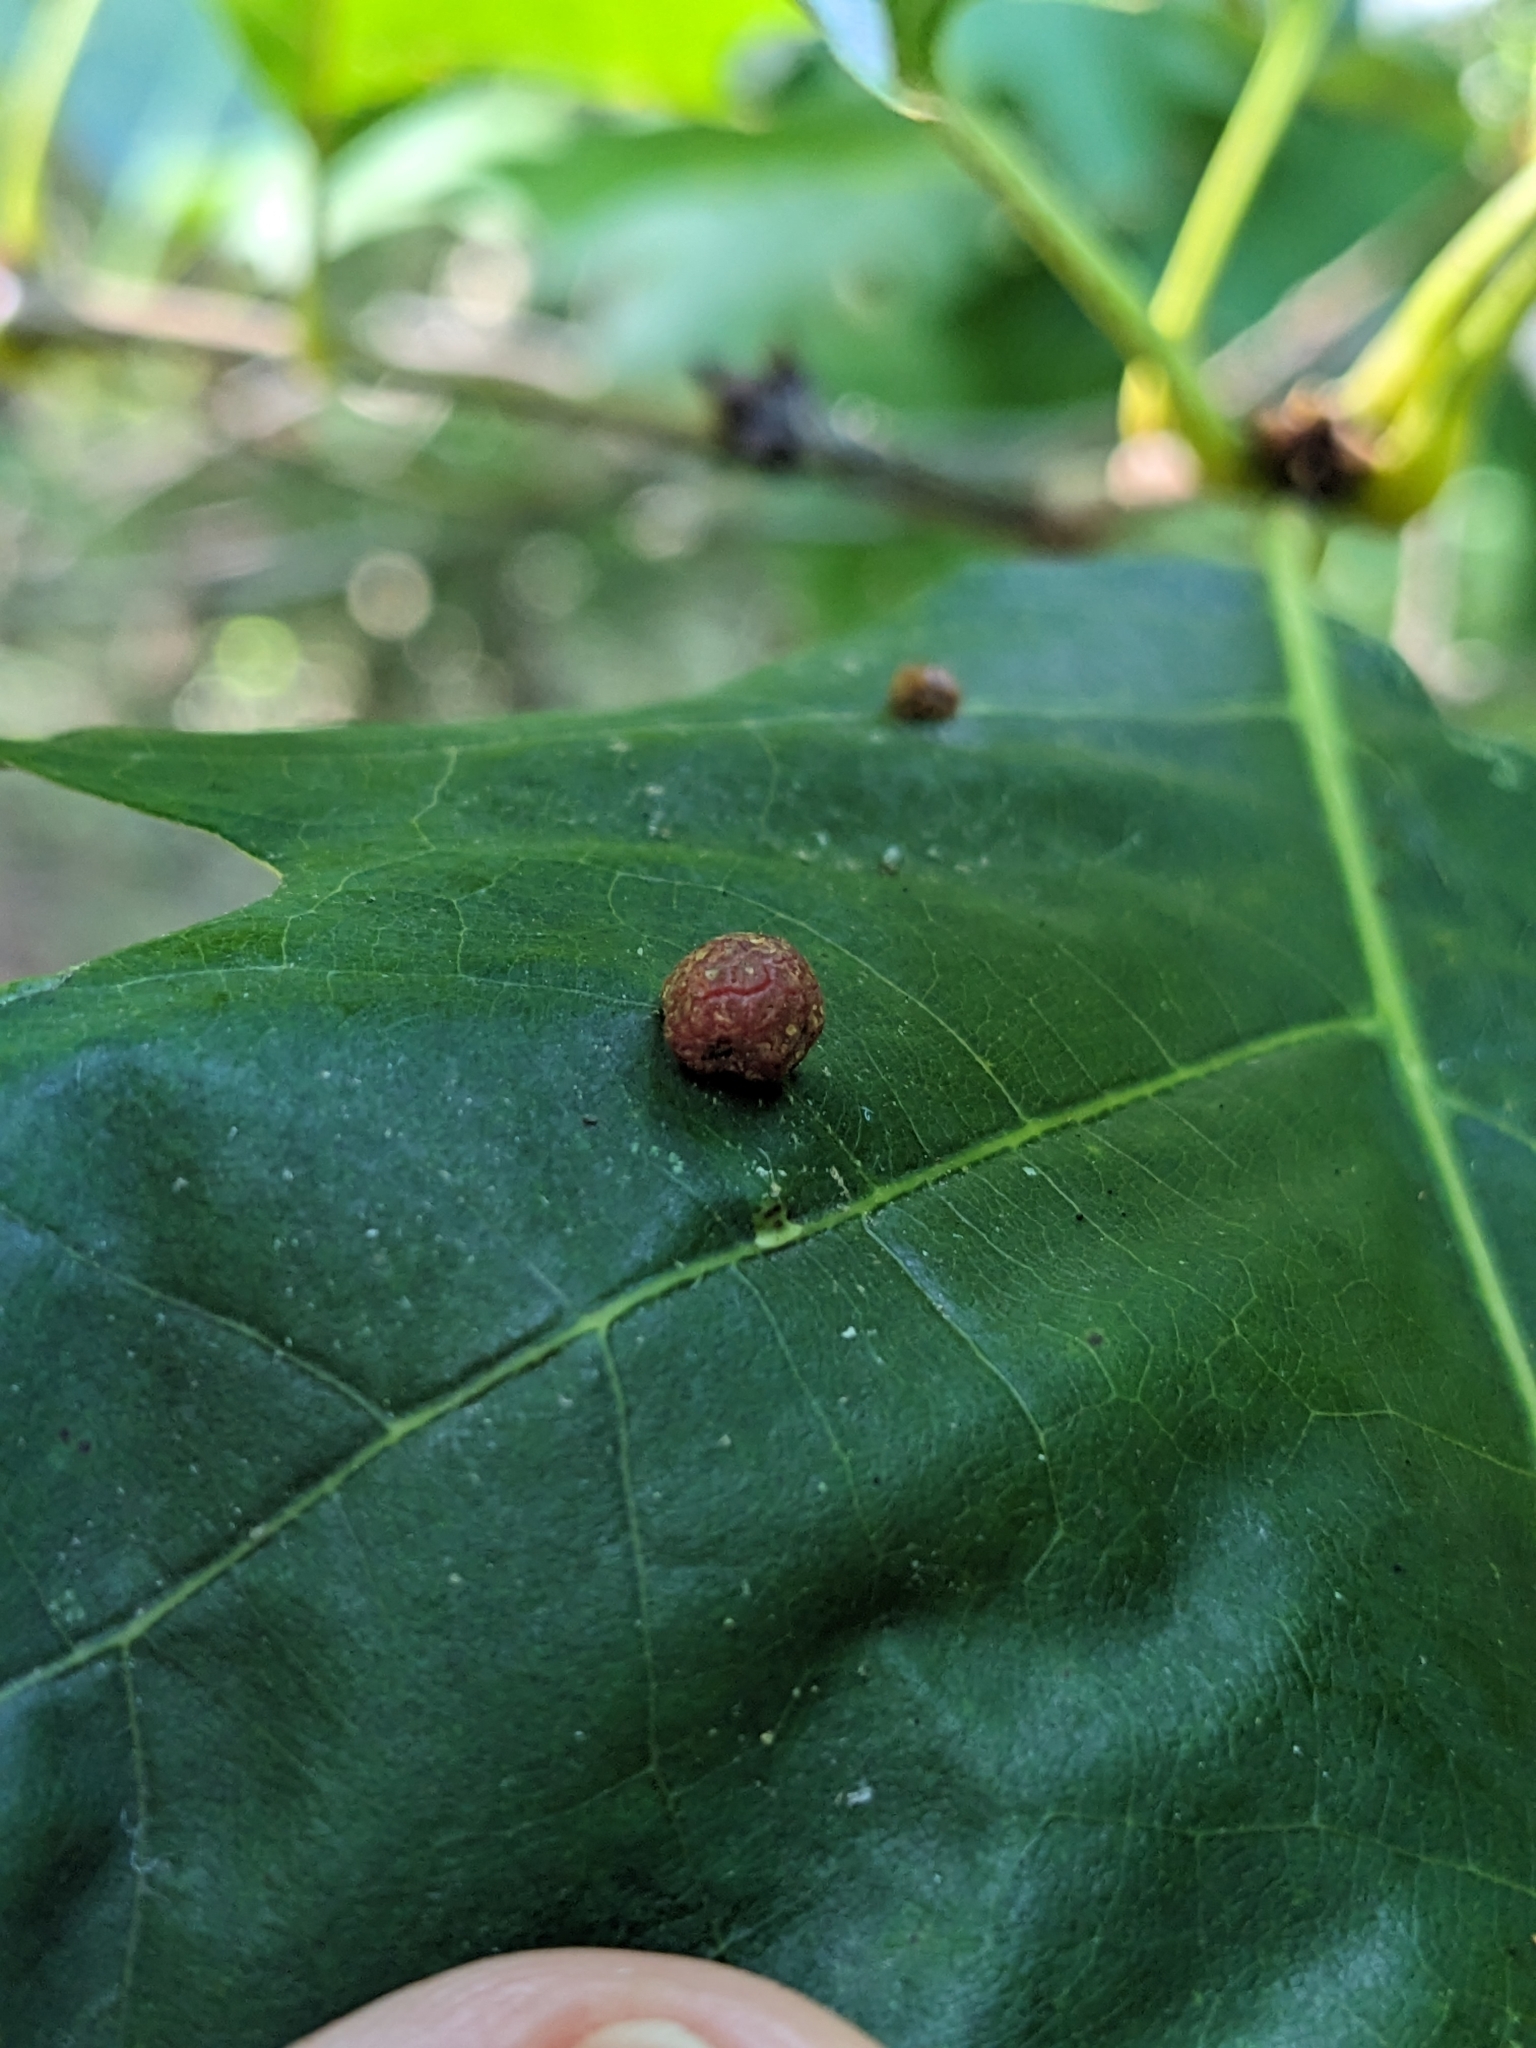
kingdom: Animalia
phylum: Arthropoda
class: Insecta
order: Diptera
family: Cecidomyiidae
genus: Polystepha
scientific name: Polystepha pilulae
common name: Oak leaf gall midge
